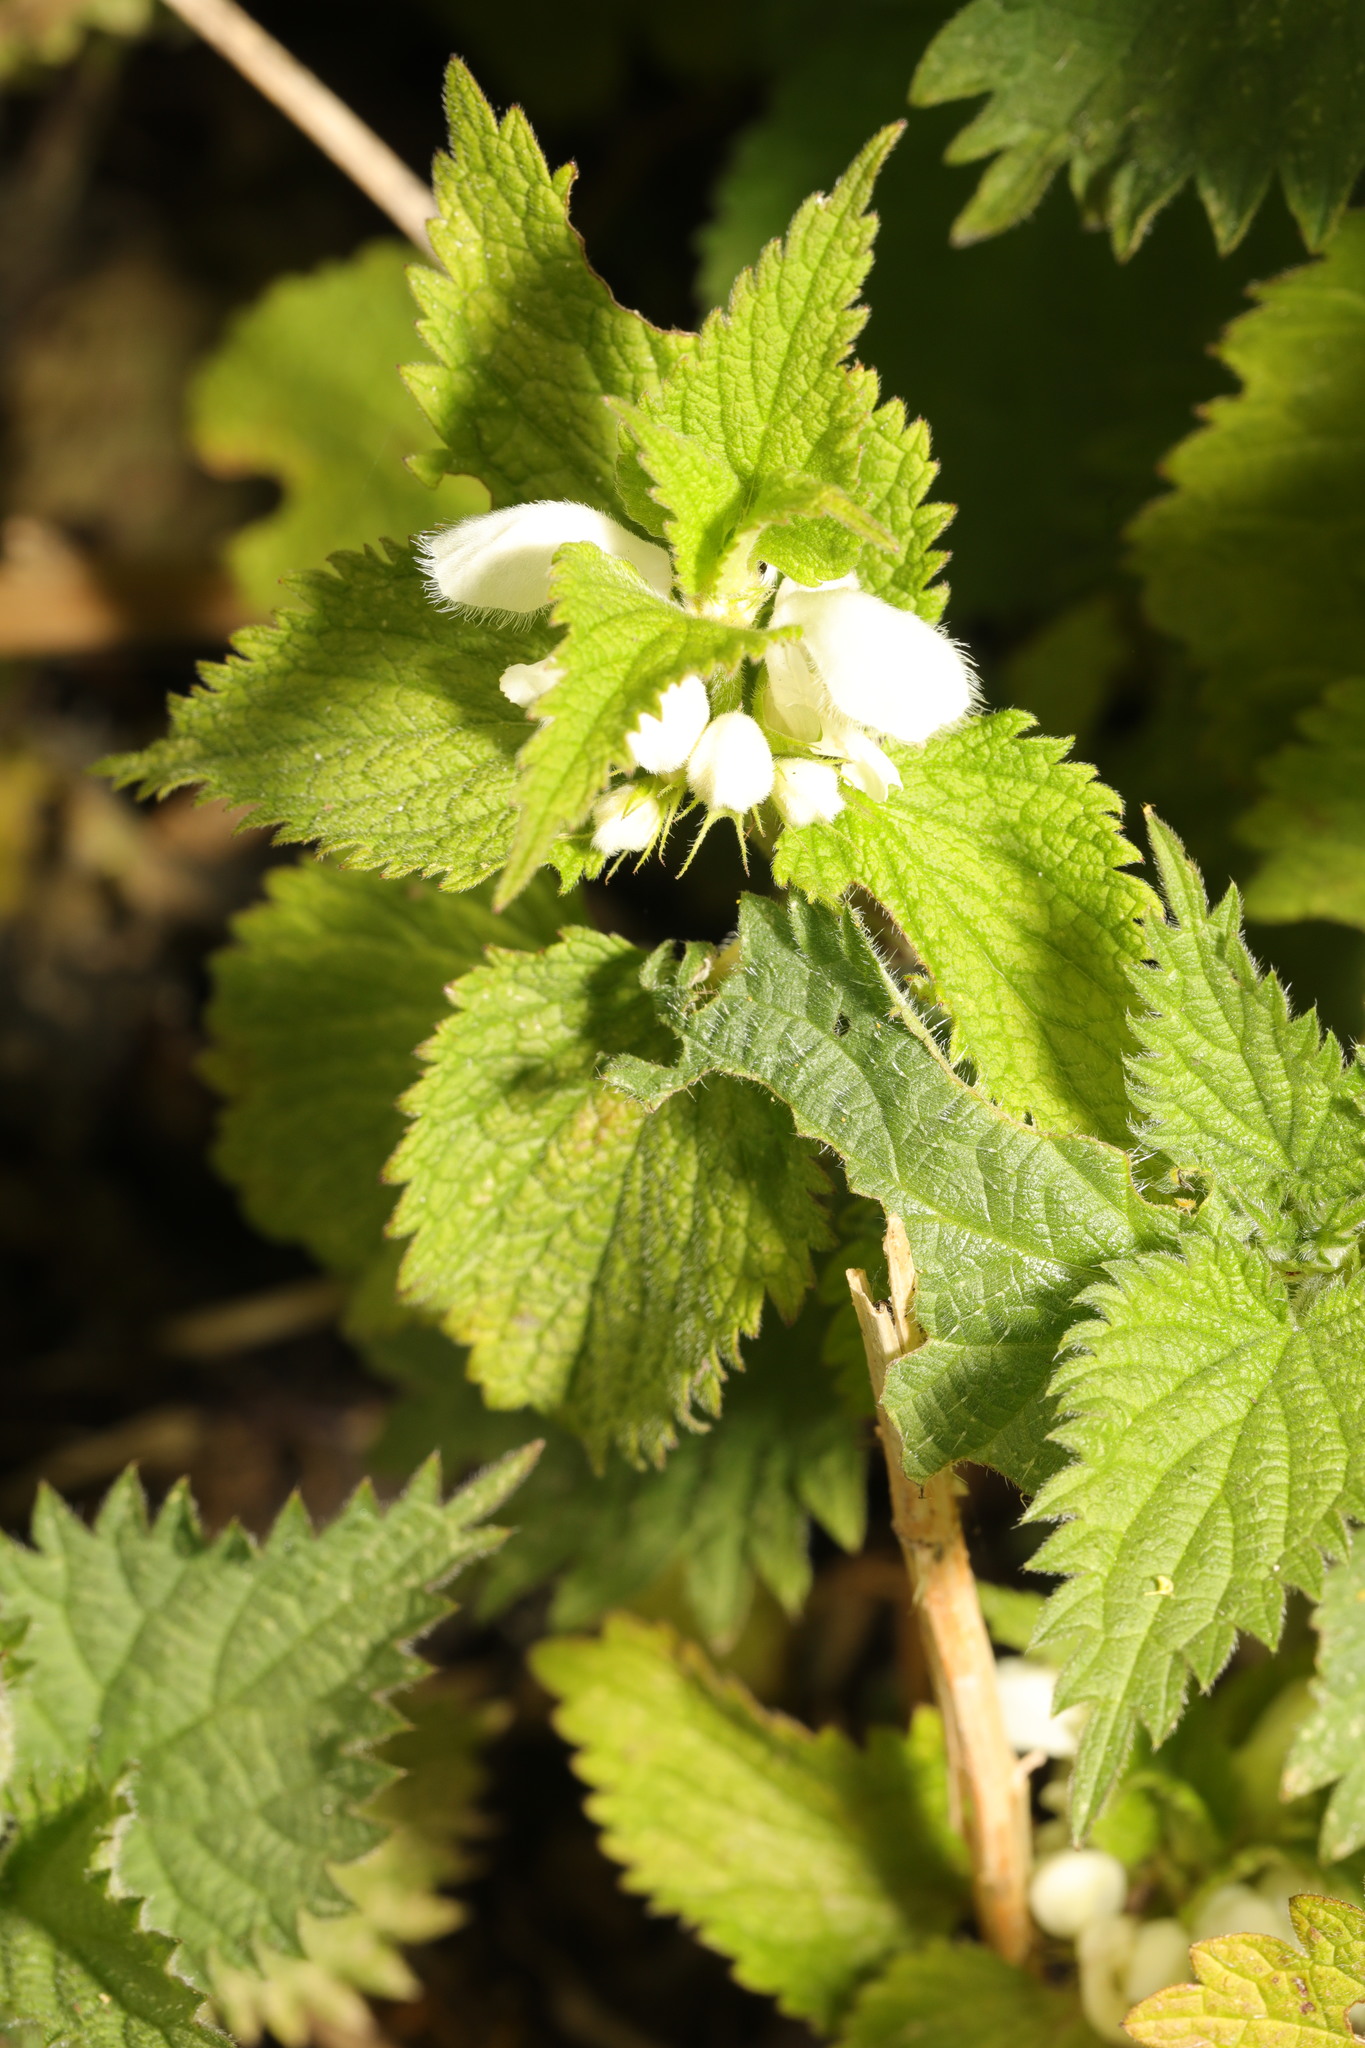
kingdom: Plantae
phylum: Tracheophyta
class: Magnoliopsida
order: Lamiales
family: Lamiaceae
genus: Lamium
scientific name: Lamium album
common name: White dead-nettle
